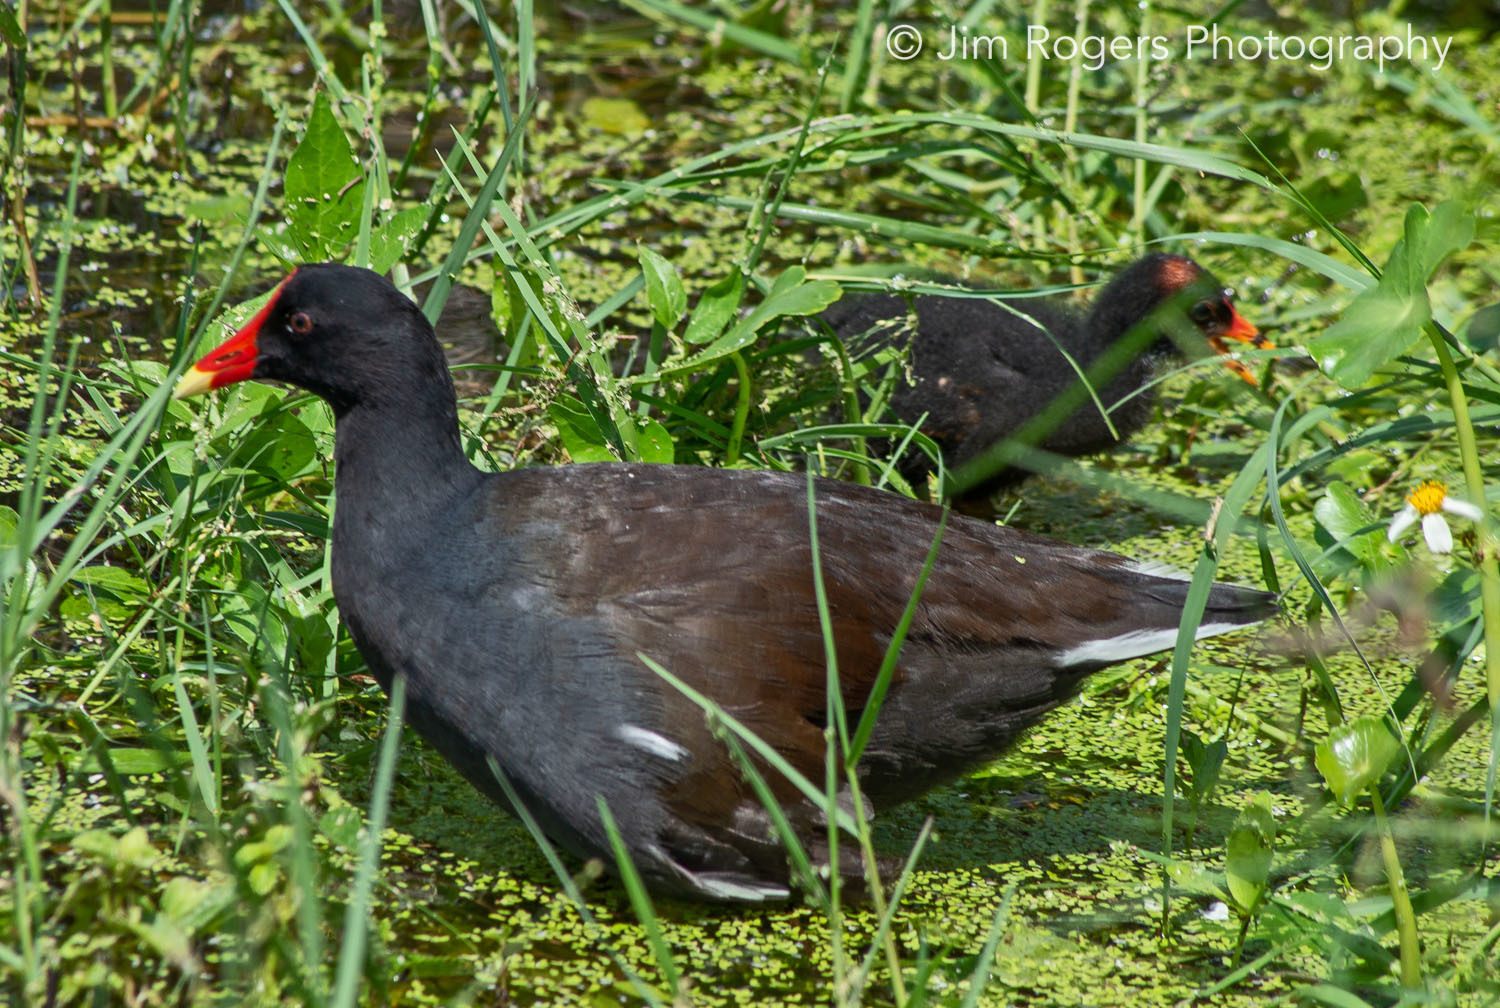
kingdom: Animalia
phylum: Chordata
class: Aves
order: Gruiformes
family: Rallidae
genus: Gallinula
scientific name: Gallinula chloropus
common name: Common moorhen
